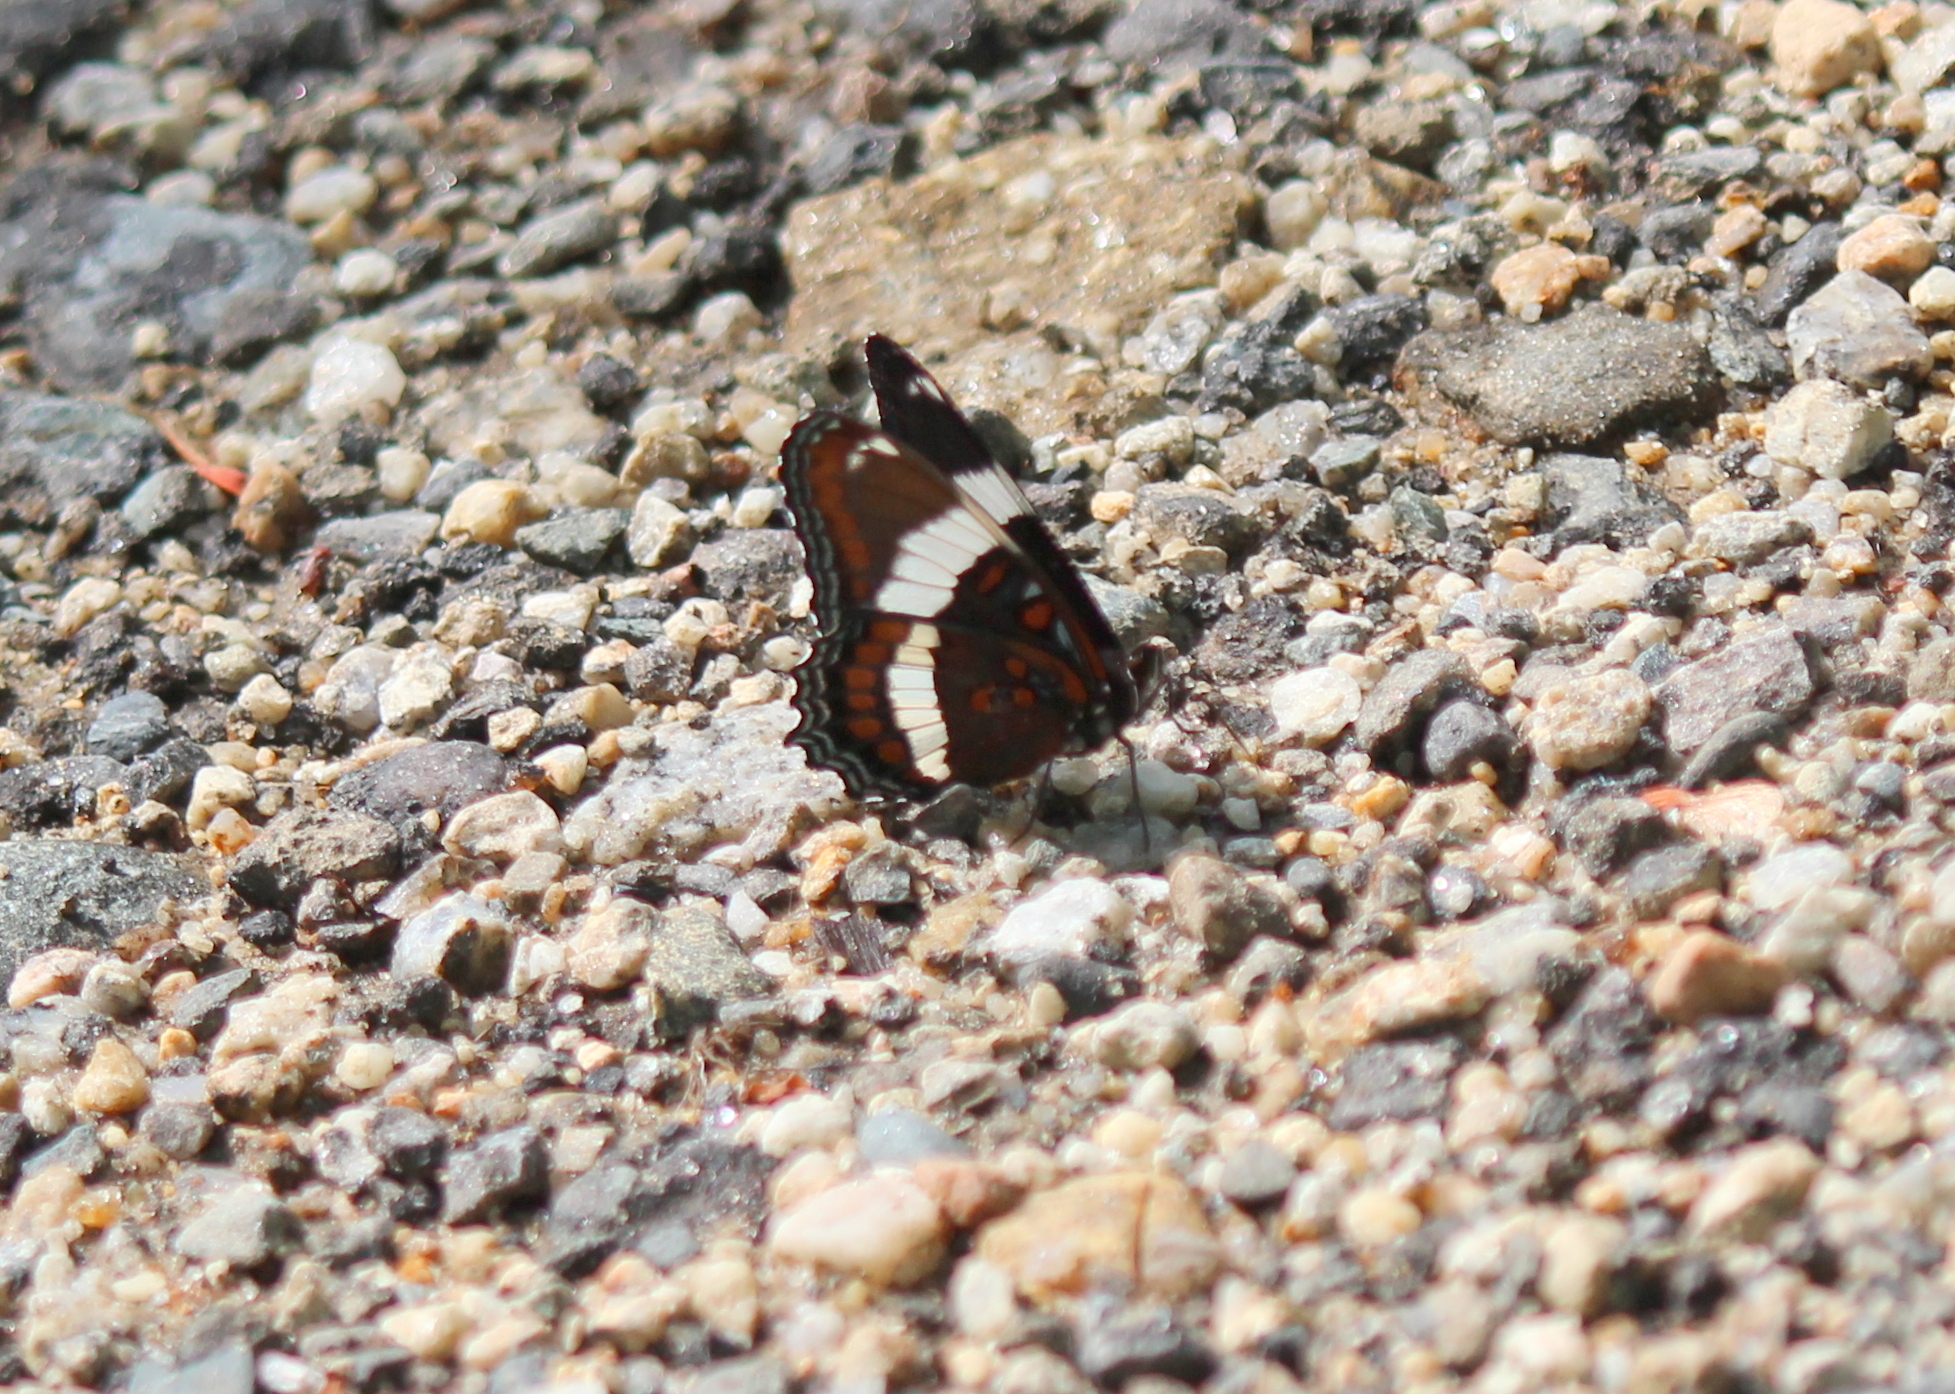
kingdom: Animalia
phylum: Arthropoda
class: Insecta
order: Lepidoptera
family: Nymphalidae
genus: Limenitis
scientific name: Limenitis arthemis
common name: Red-spotted admiral
